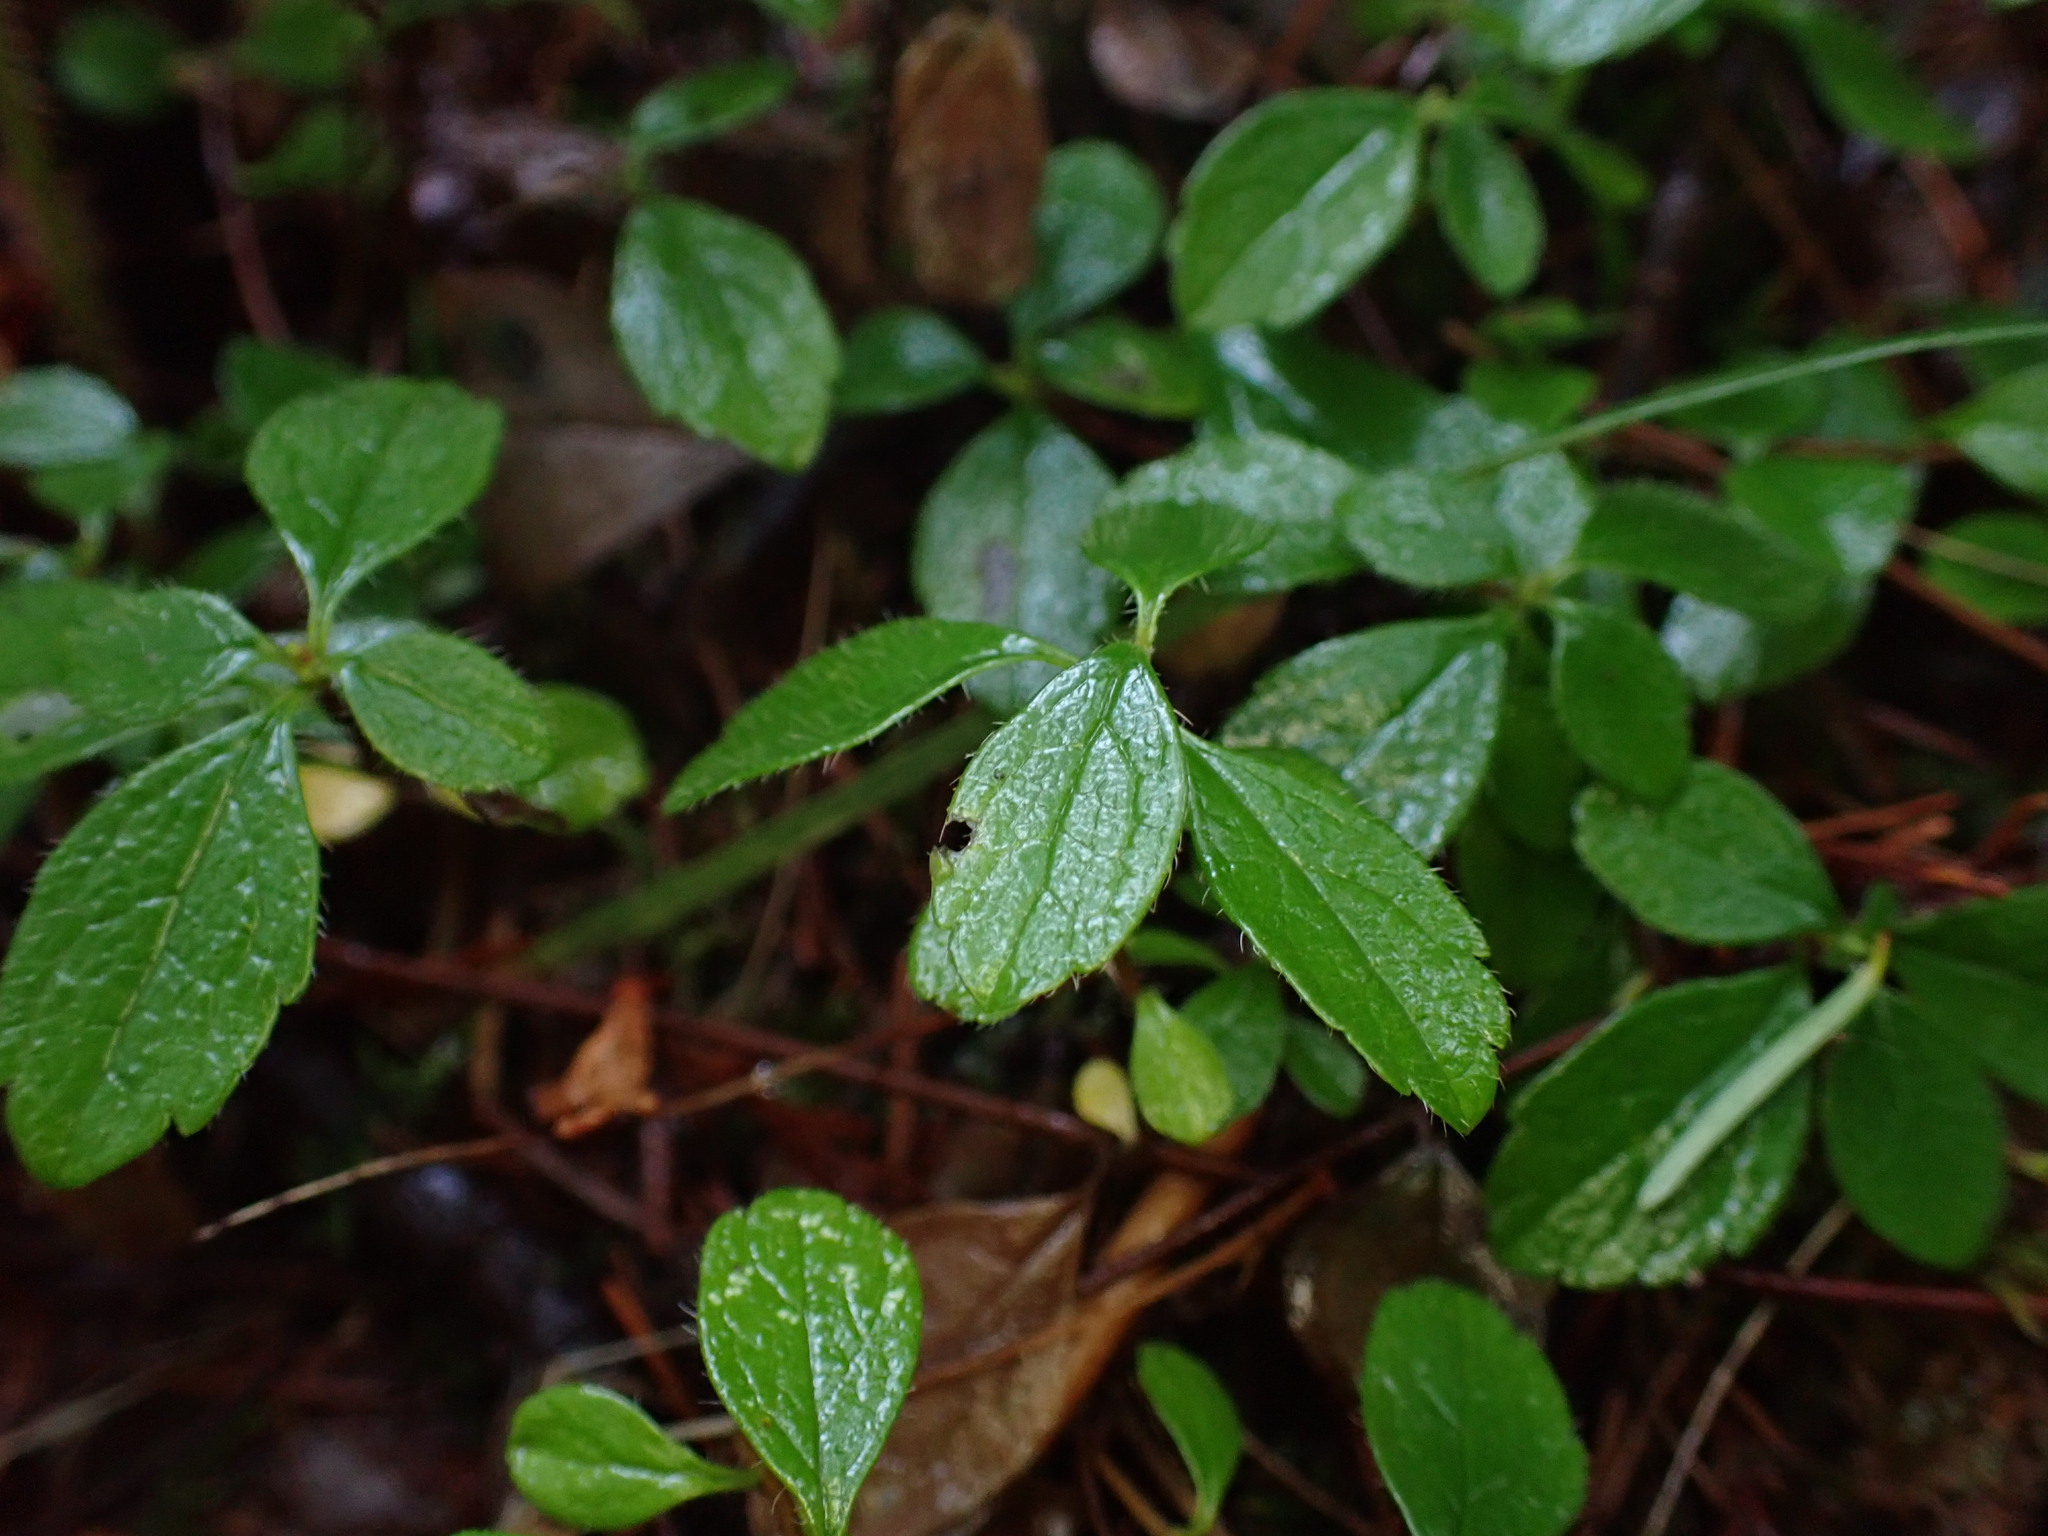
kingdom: Plantae
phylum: Tracheophyta
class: Magnoliopsida
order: Dipsacales
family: Caprifoliaceae
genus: Linnaea
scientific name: Linnaea borealis
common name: Twinflower
